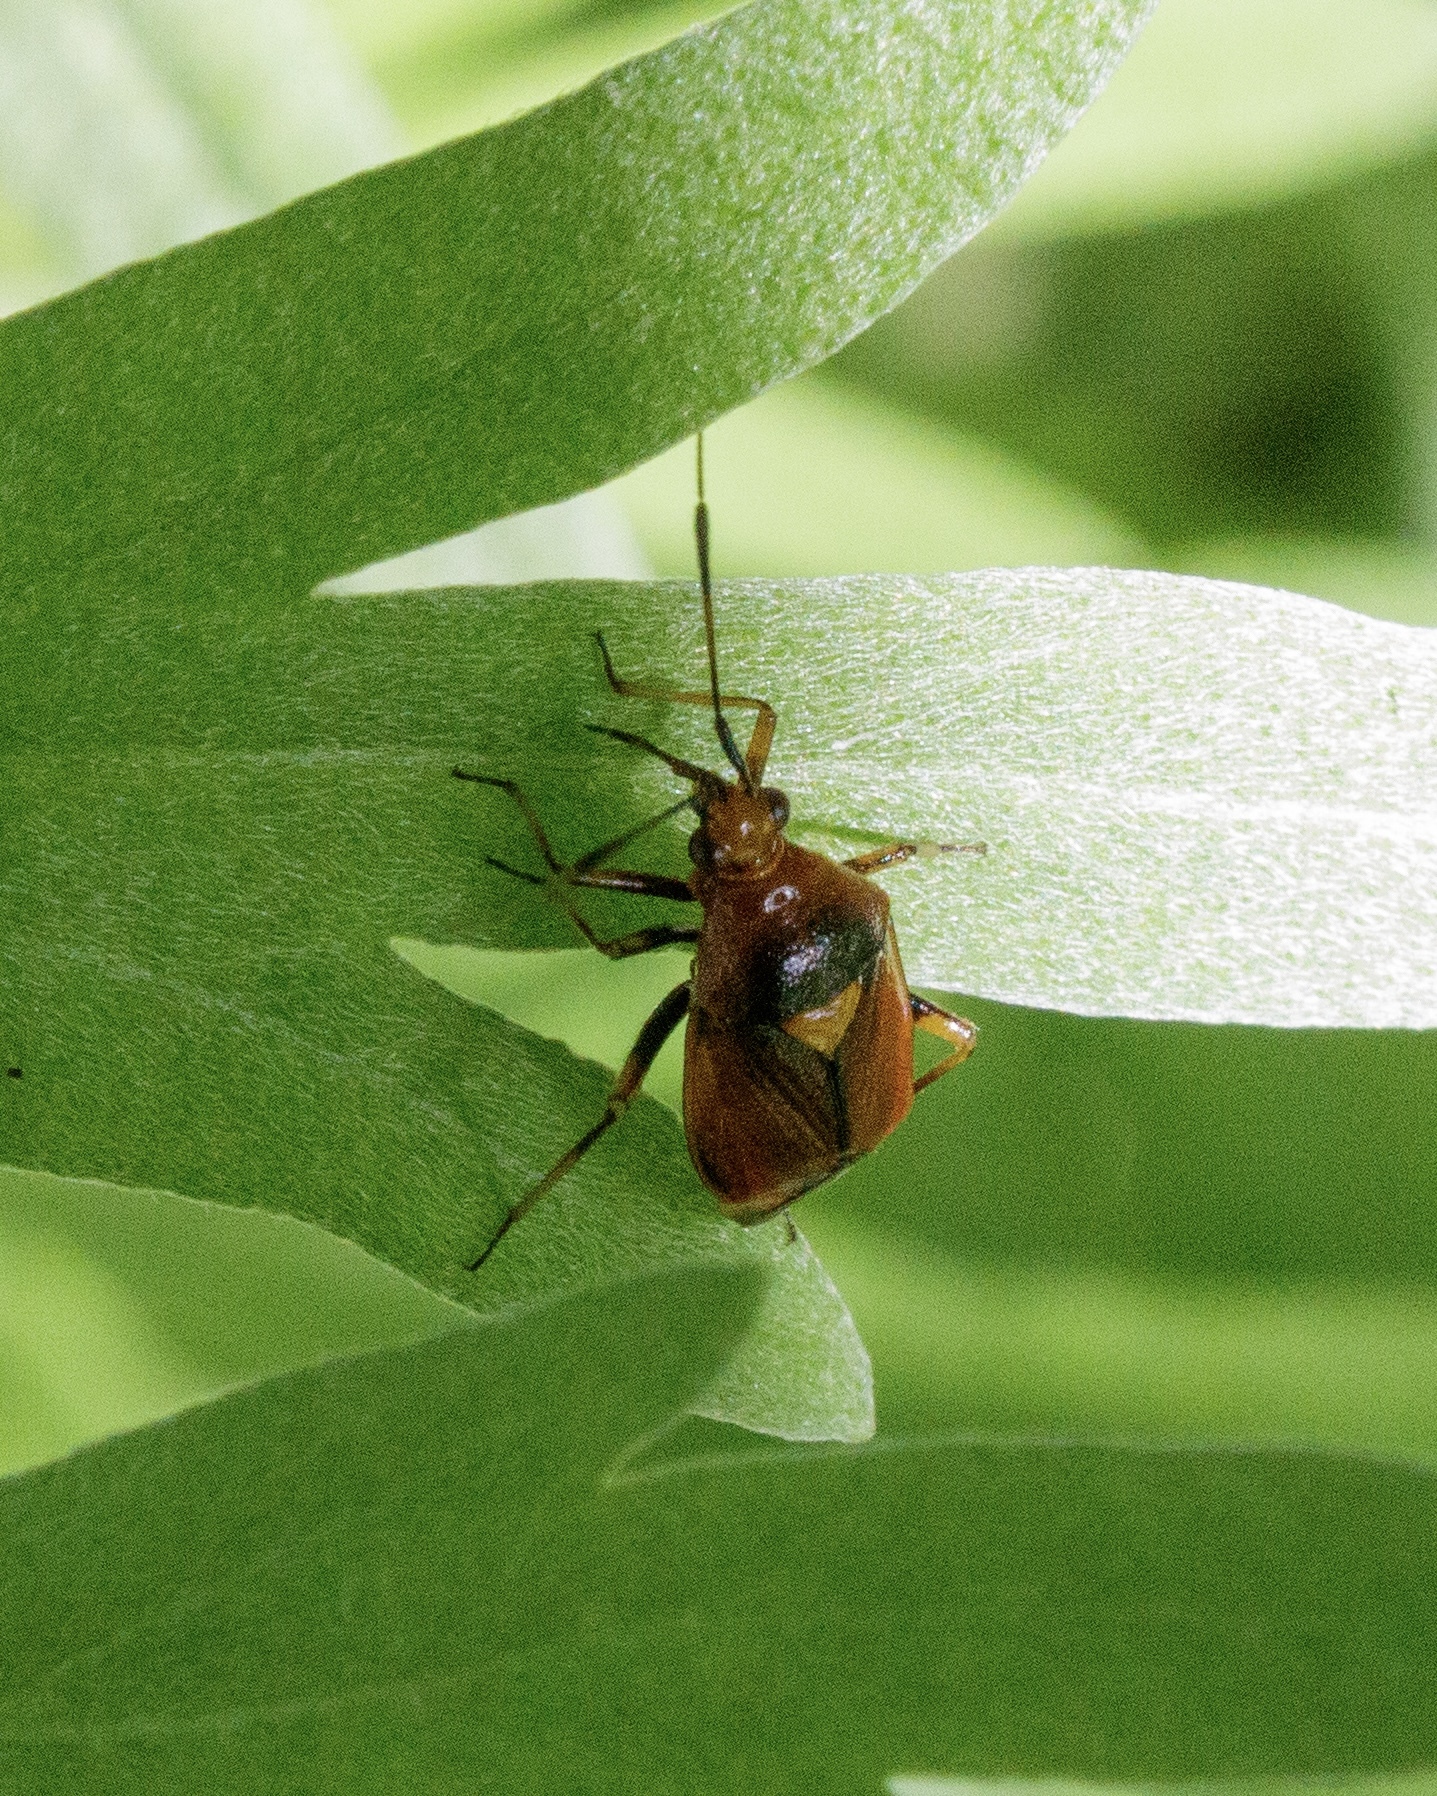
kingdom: Animalia
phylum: Arthropoda
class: Insecta
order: Hemiptera
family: Miridae
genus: Deraeocoris
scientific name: Deraeocoris ruber
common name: Plant bug
